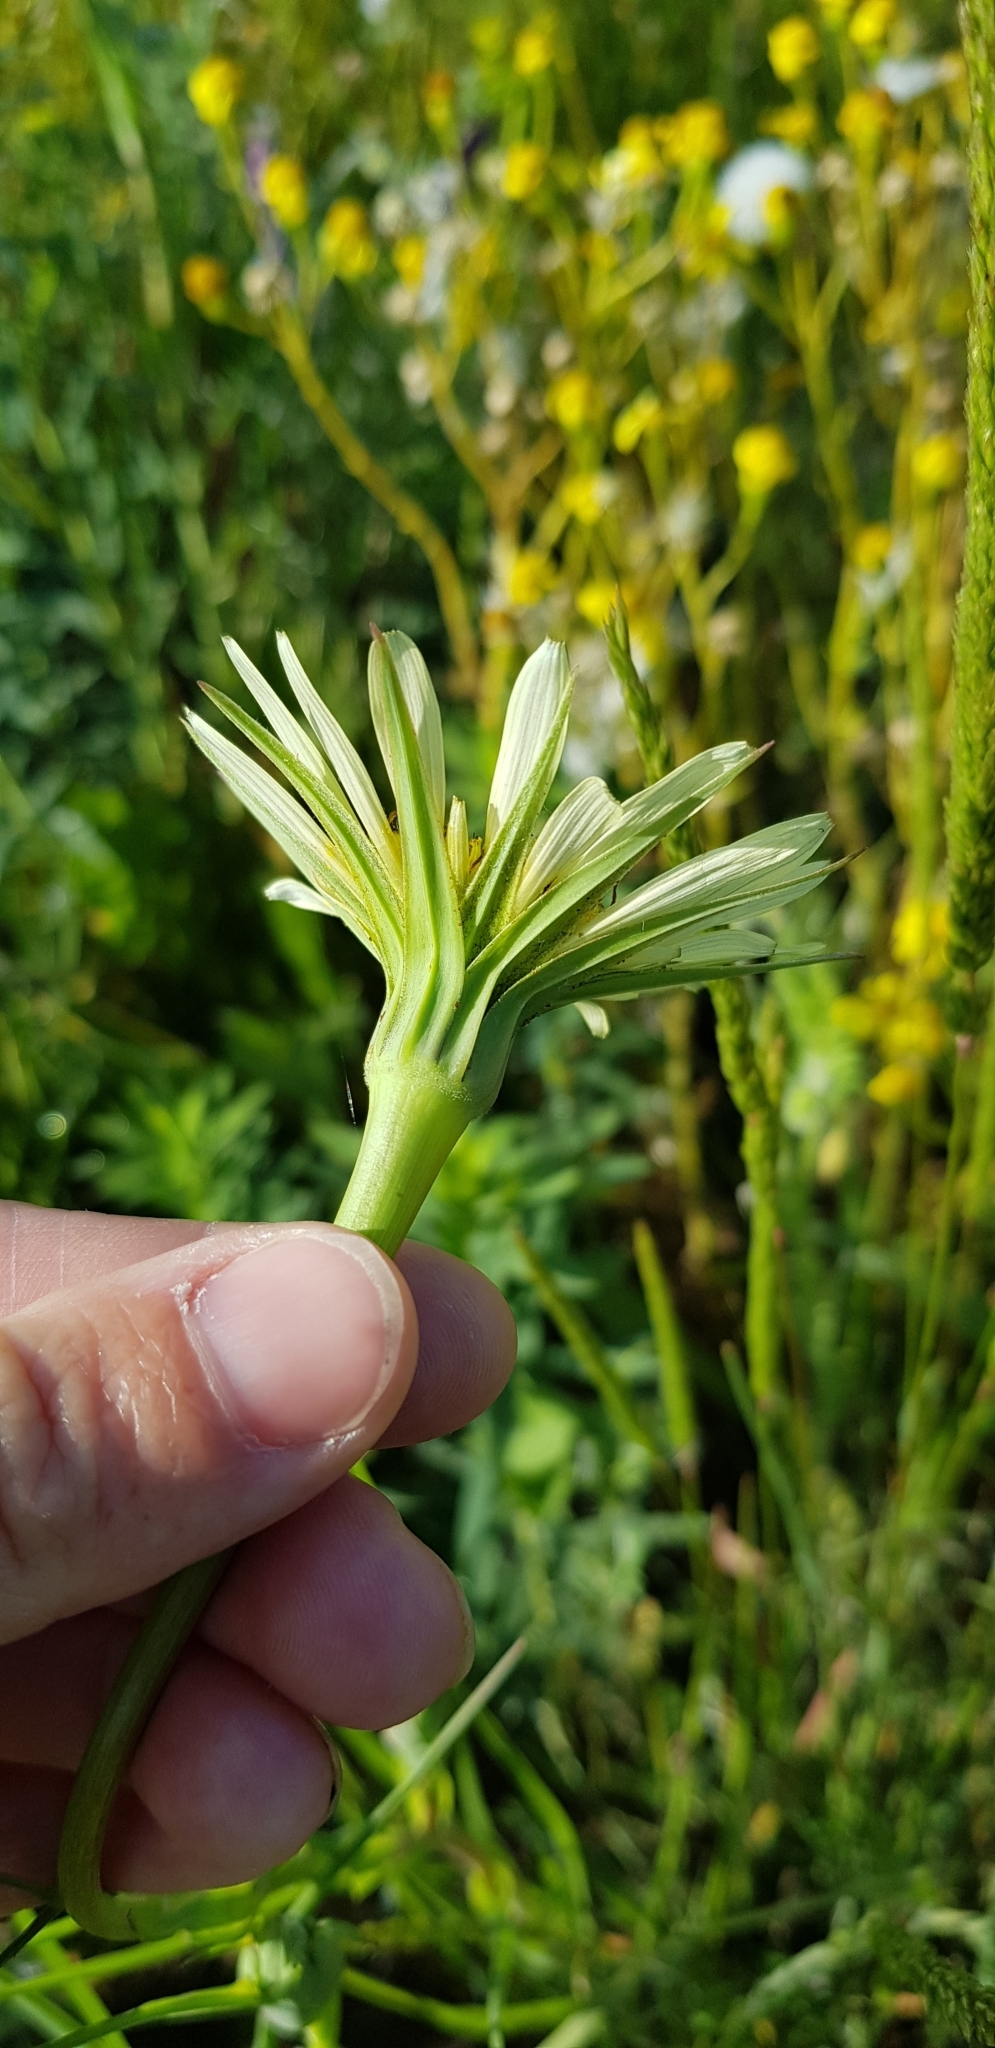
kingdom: Plantae
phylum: Tracheophyta
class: Magnoliopsida
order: Asterales
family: Asteraceae
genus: Tragopogon
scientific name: Tragopogon dubius
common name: Yellow salsify
